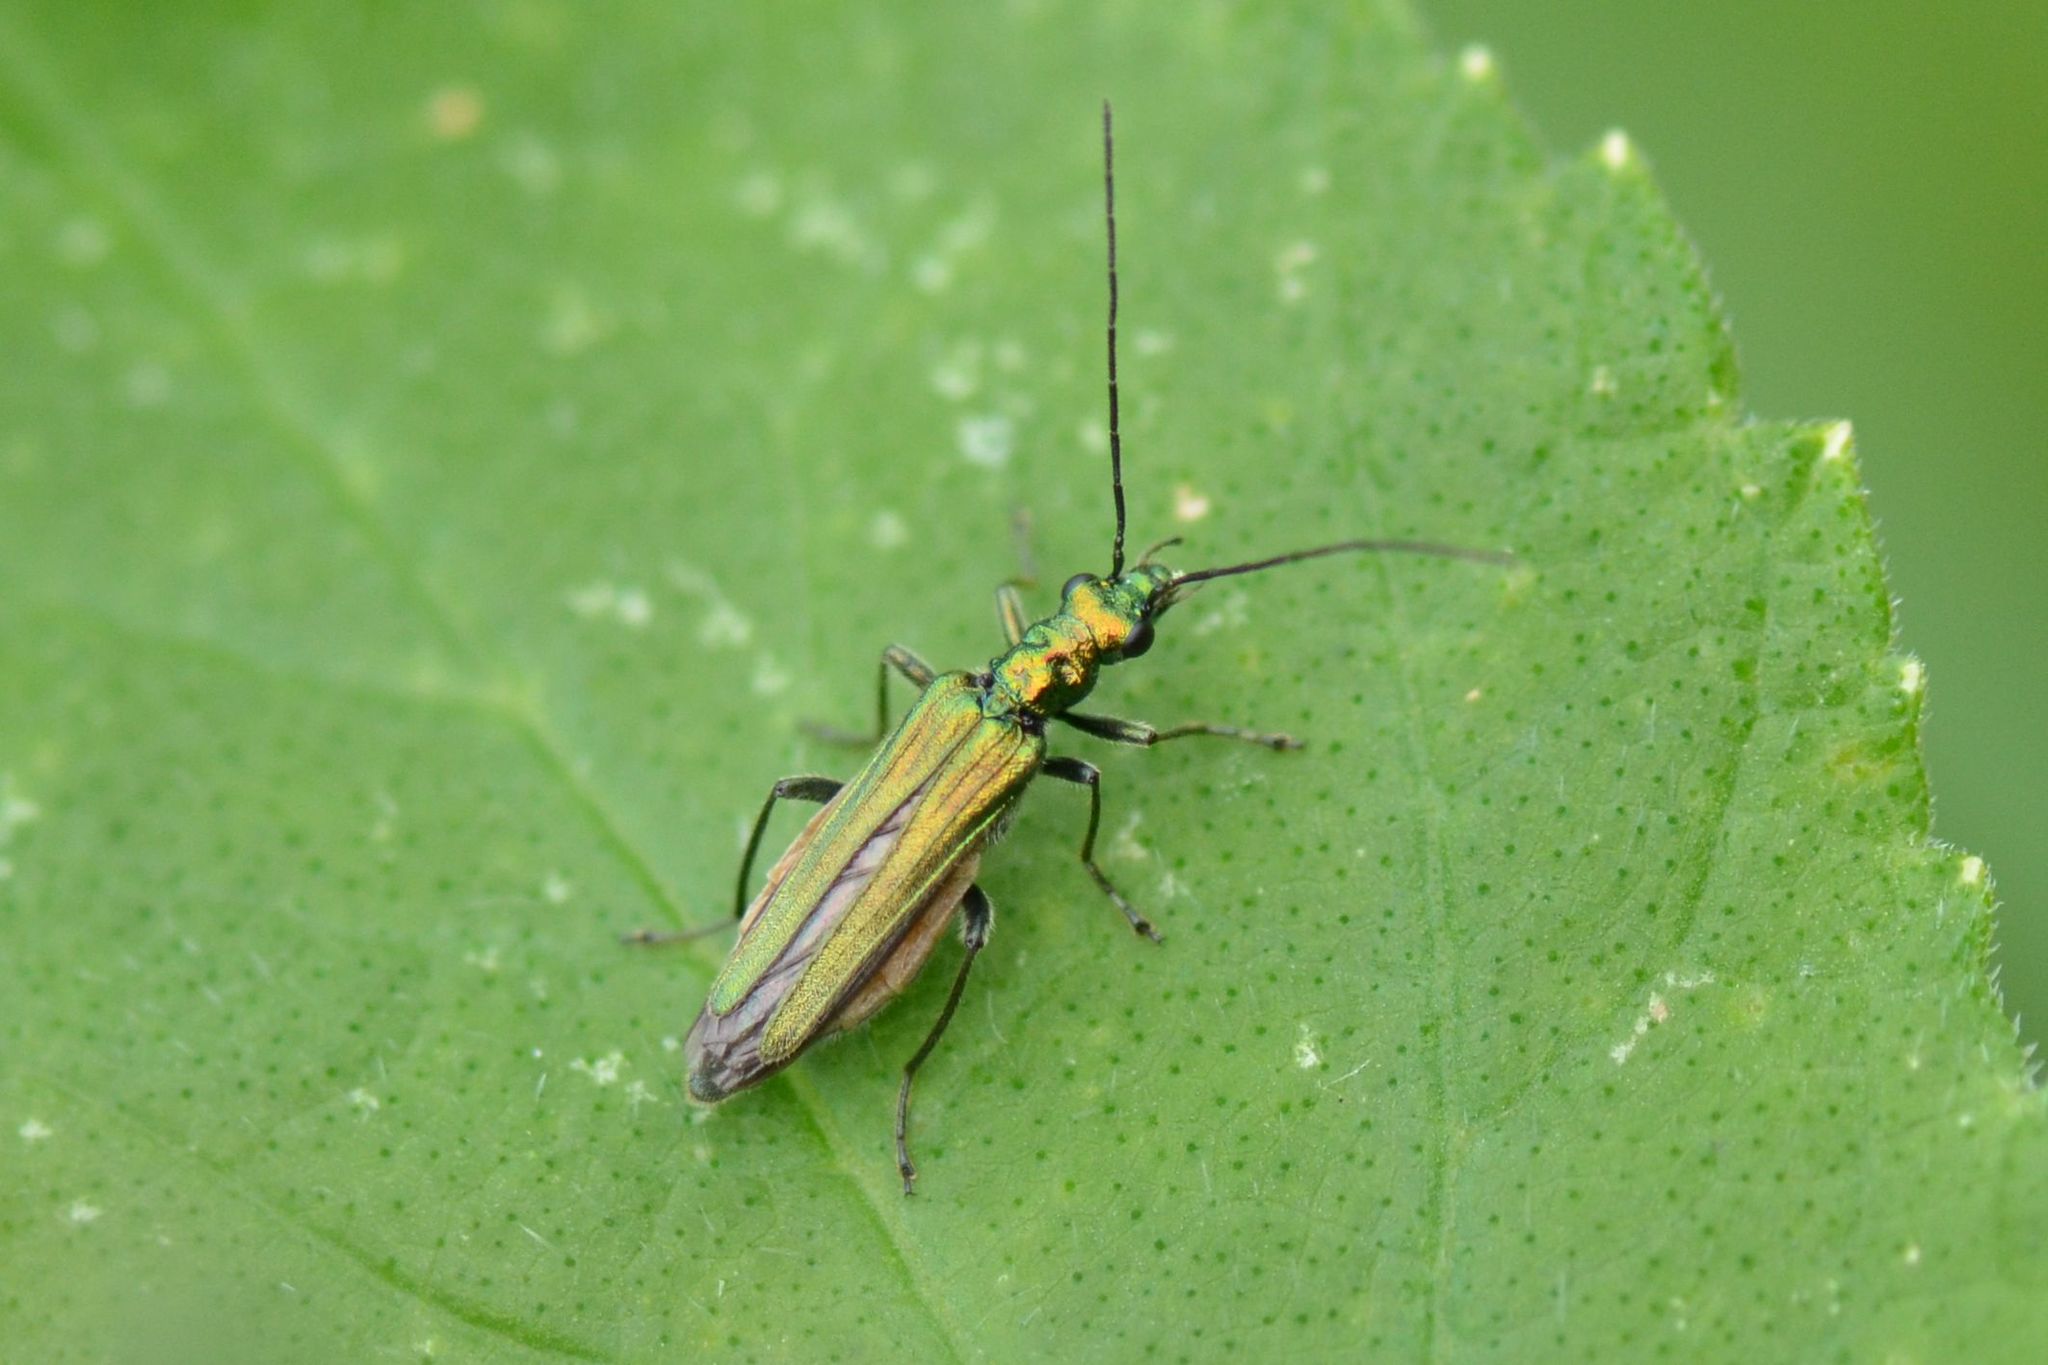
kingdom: Animalia
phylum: Arthropoda
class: Insecta
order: Coleoptera
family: Oedemeridae
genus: Oedemera
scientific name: Oedemera nobilis
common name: Swollen-thighed beetle
